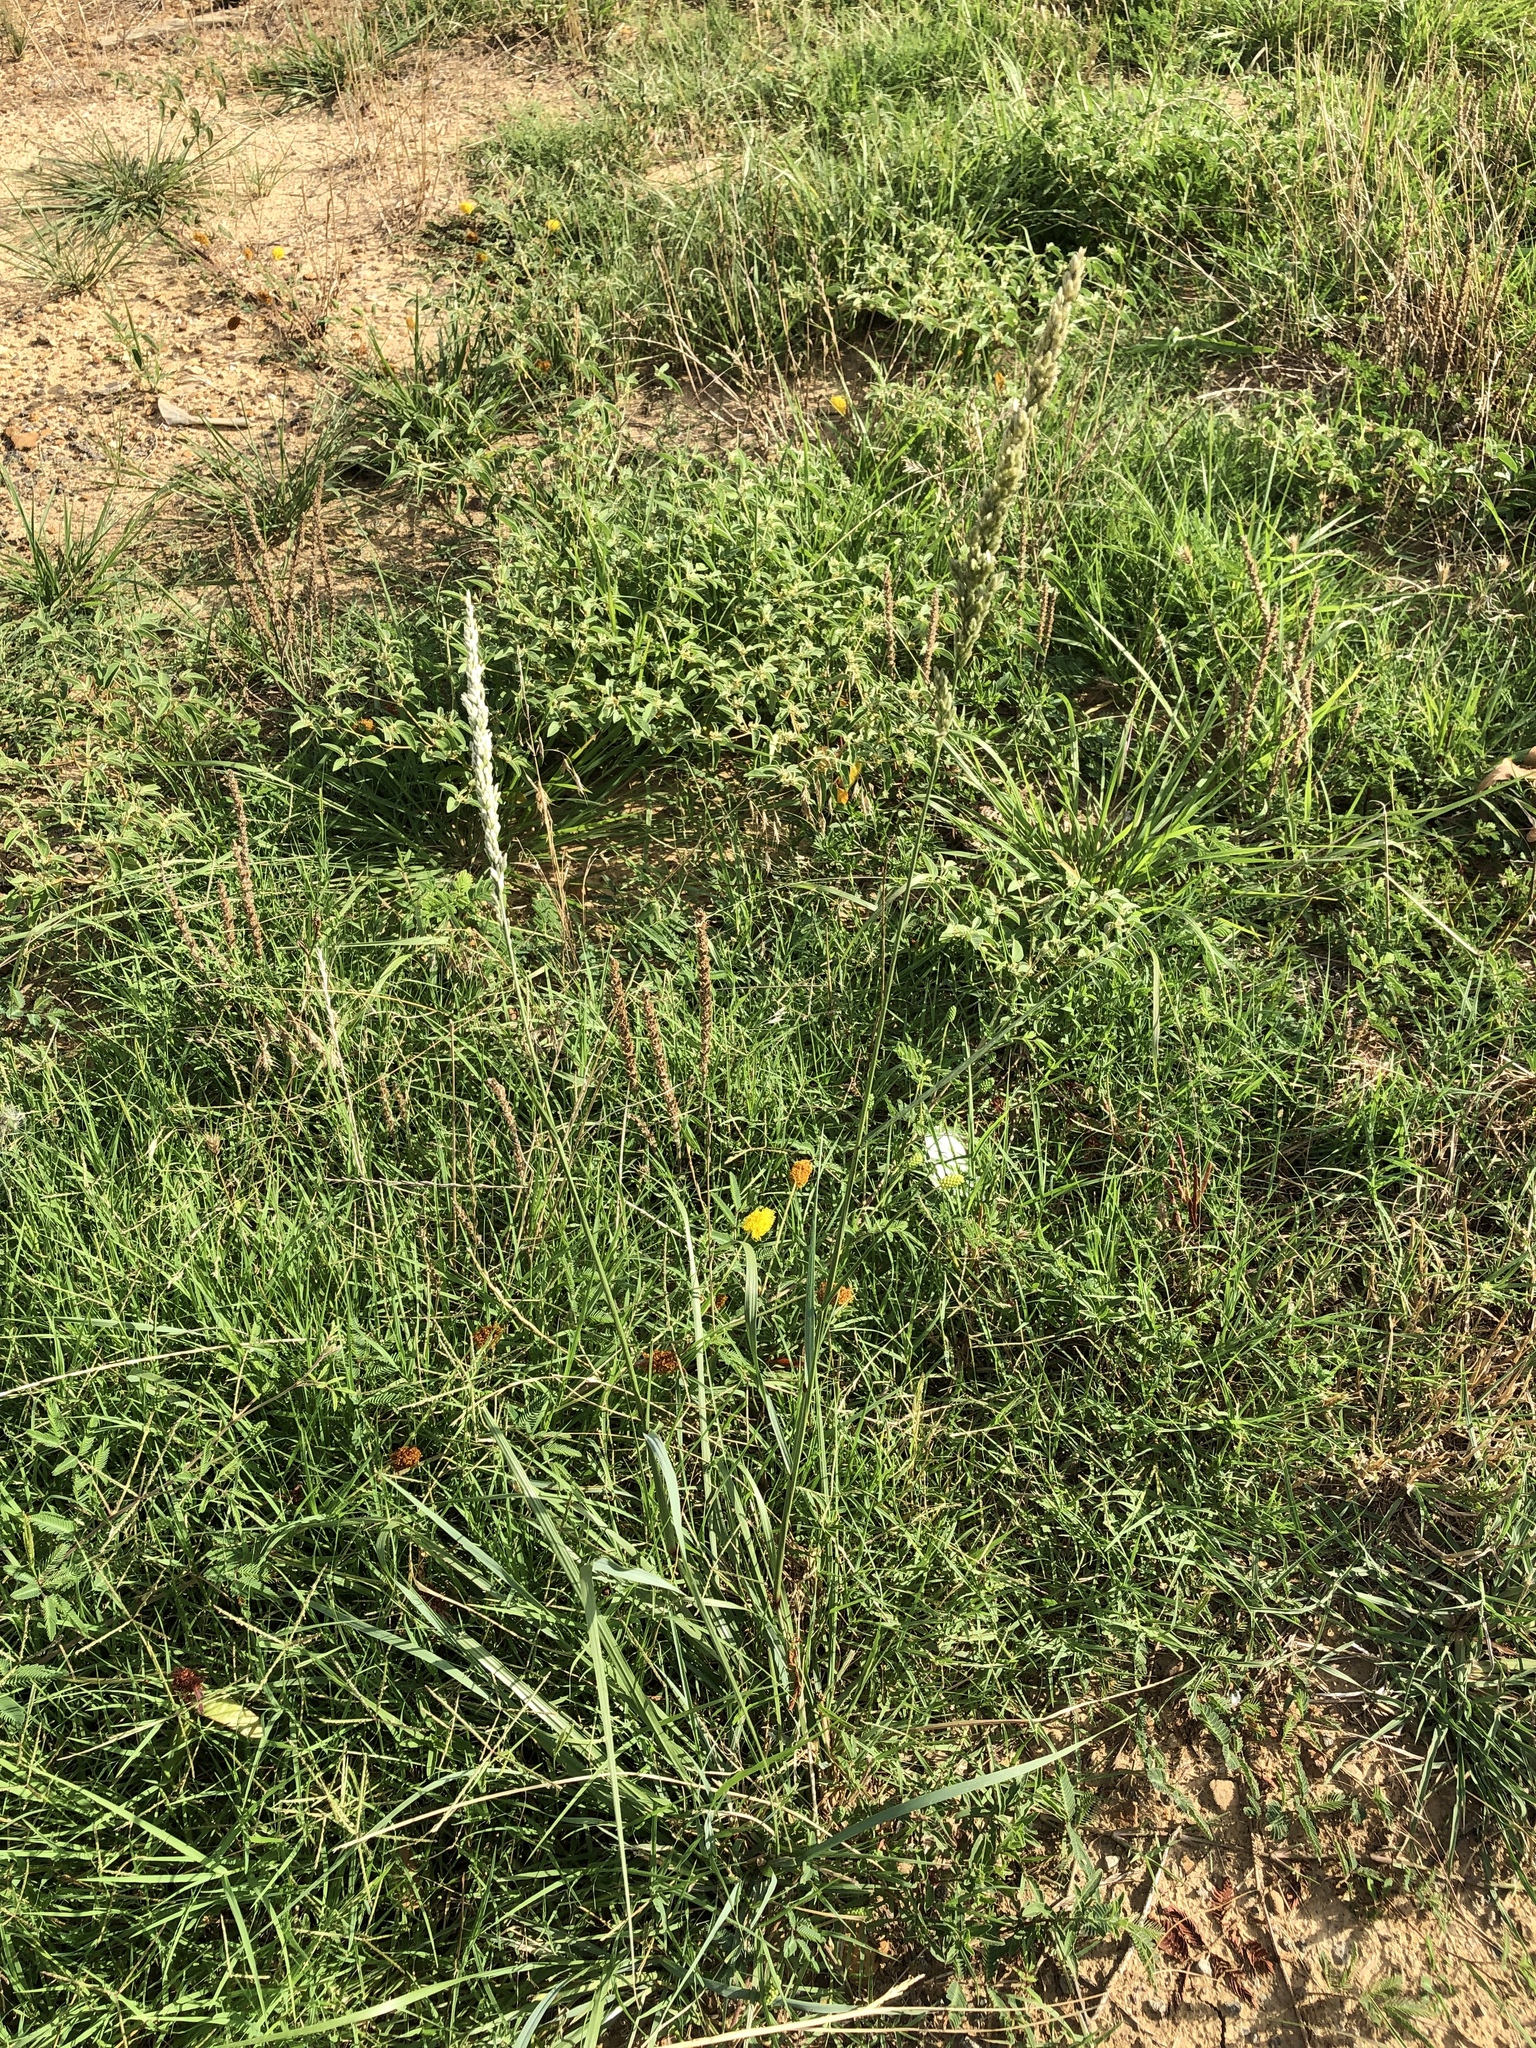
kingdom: Plantae
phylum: Tracheophyta
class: Liliopsida
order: Poales
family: Poaceae
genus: Tridens
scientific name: Tridens albescens
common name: White tridens
